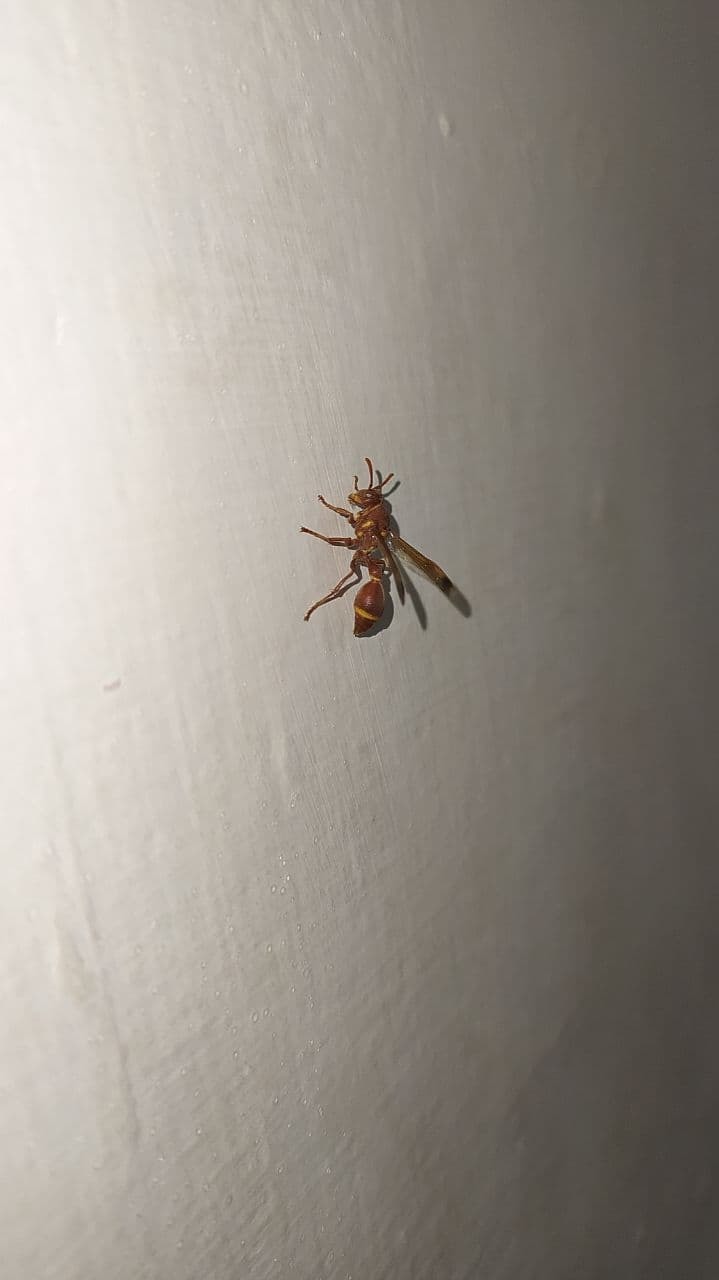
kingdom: Animalia
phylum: Arthropoda
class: Insecta
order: Hymenoptera
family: Vespidae
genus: Ropalidia
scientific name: Ropalidia marginata
